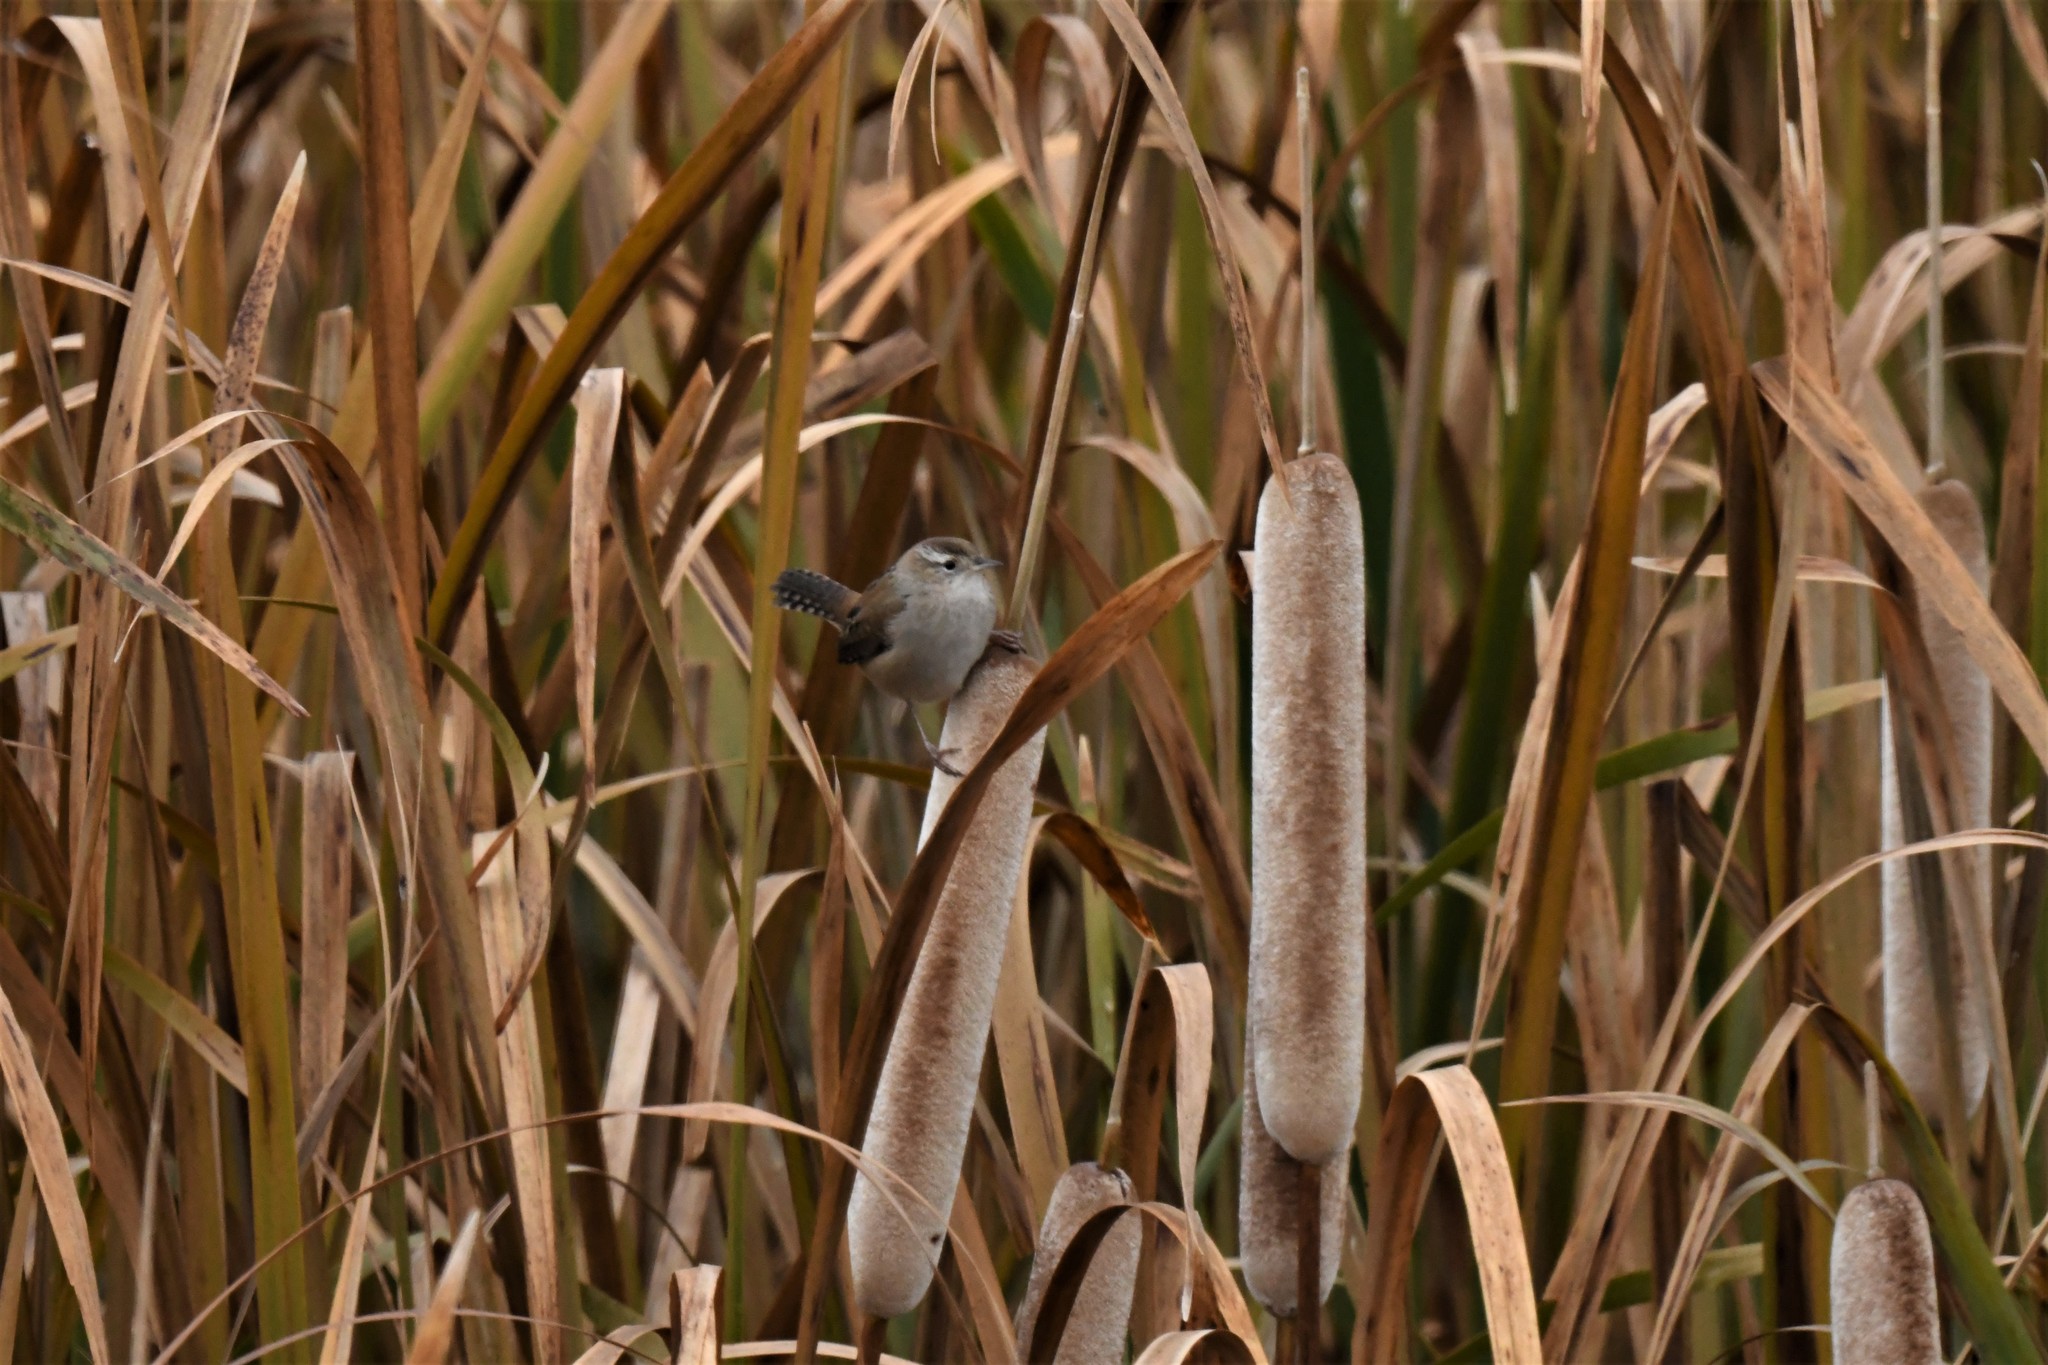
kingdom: Animalia
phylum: Chordata
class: Aves
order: Passeriformes
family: Troglodytidae
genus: Cistothorus
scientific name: Cistothorus palustris
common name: Marsh wren
